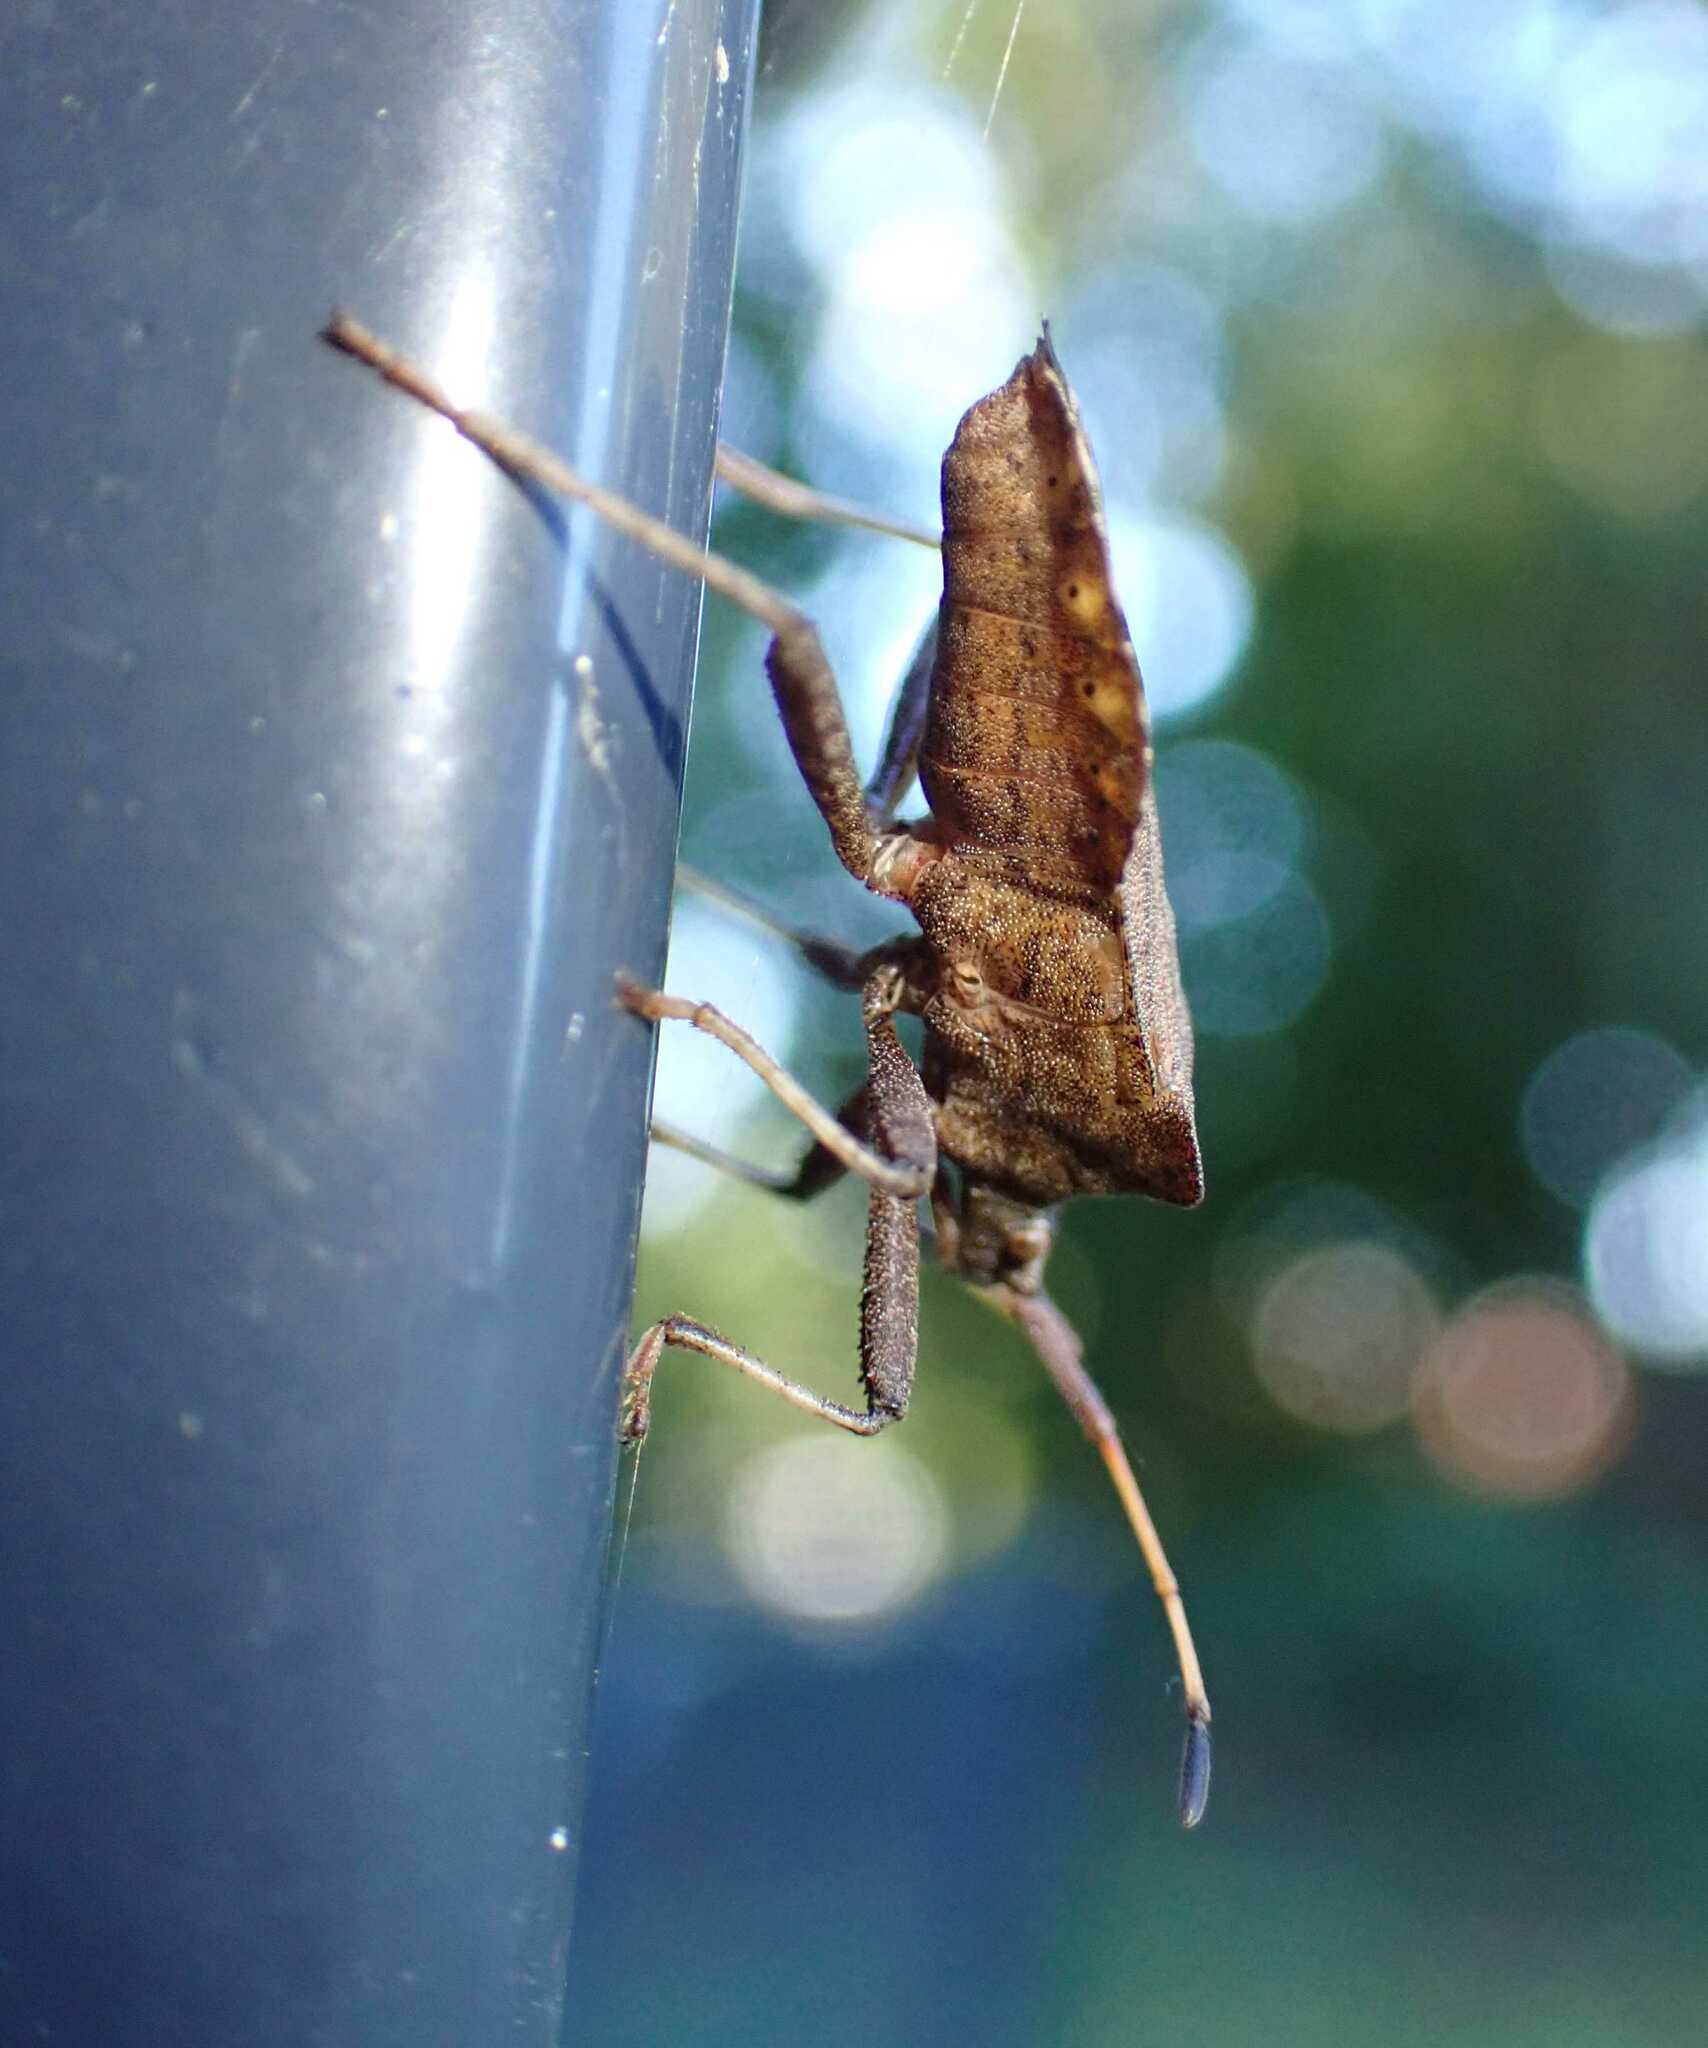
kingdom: Animalia
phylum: Arthropoda
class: Insecta
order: Hemiptera
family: Coreidae
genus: Coreus
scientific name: Coreus marginatus
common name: Dock bug
